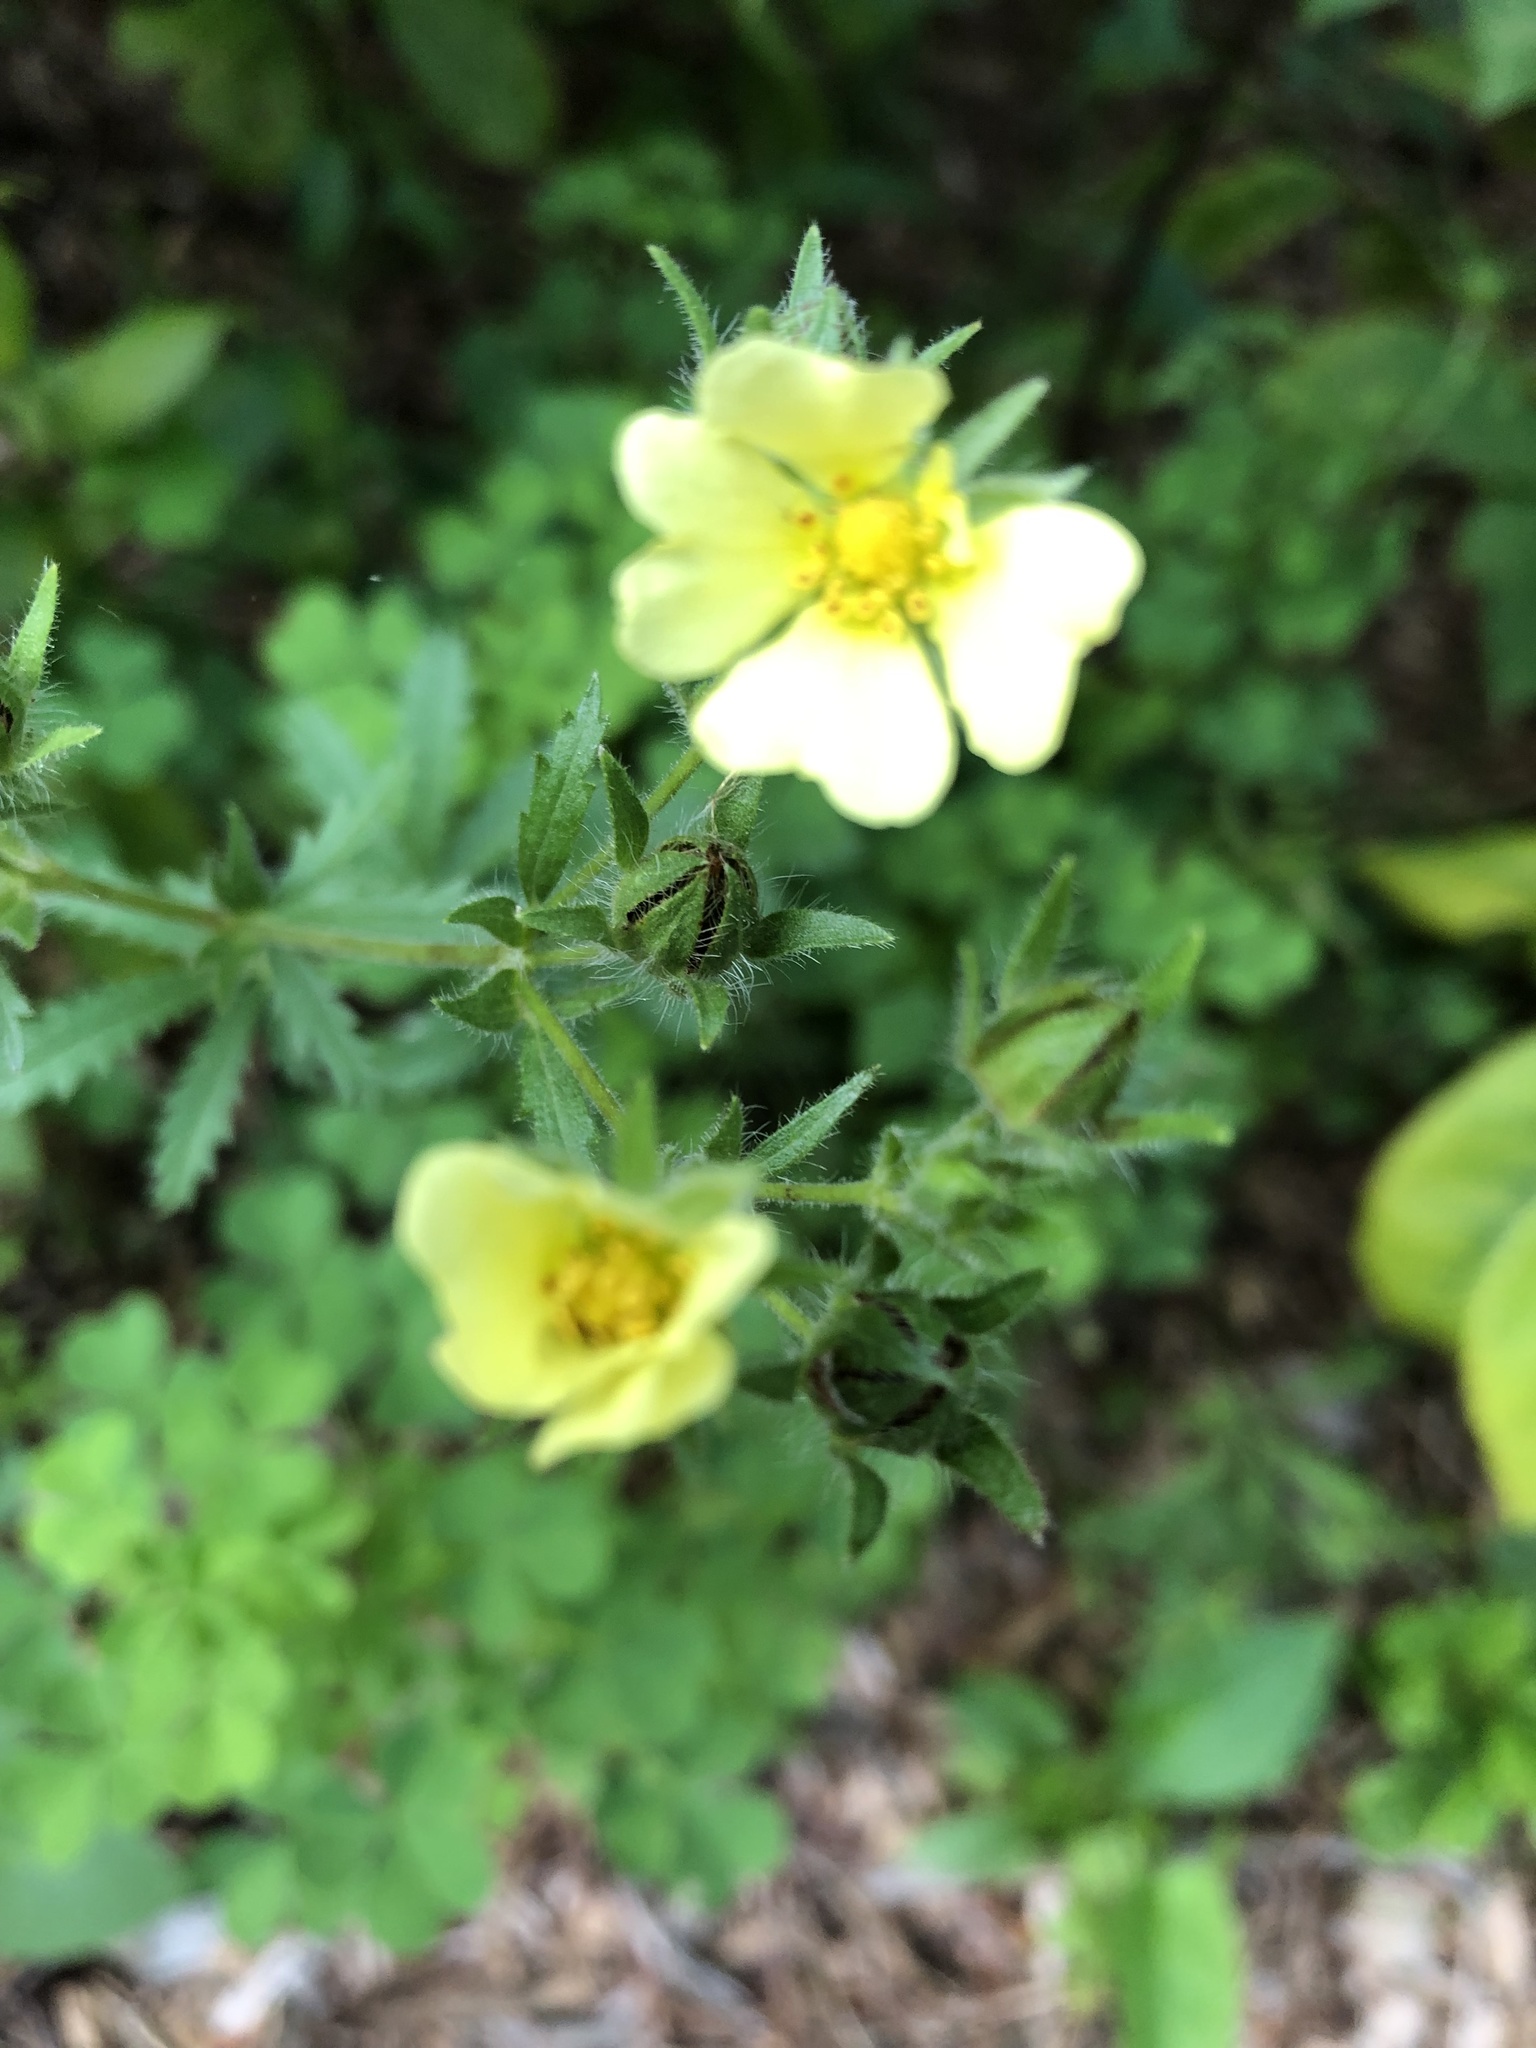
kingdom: Plantae
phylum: Tracheophyta
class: Magnoliopsida
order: Rosales
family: Rosaceae
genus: Potentilla
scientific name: Potentilla recta
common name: Sulphur cinquefoil
